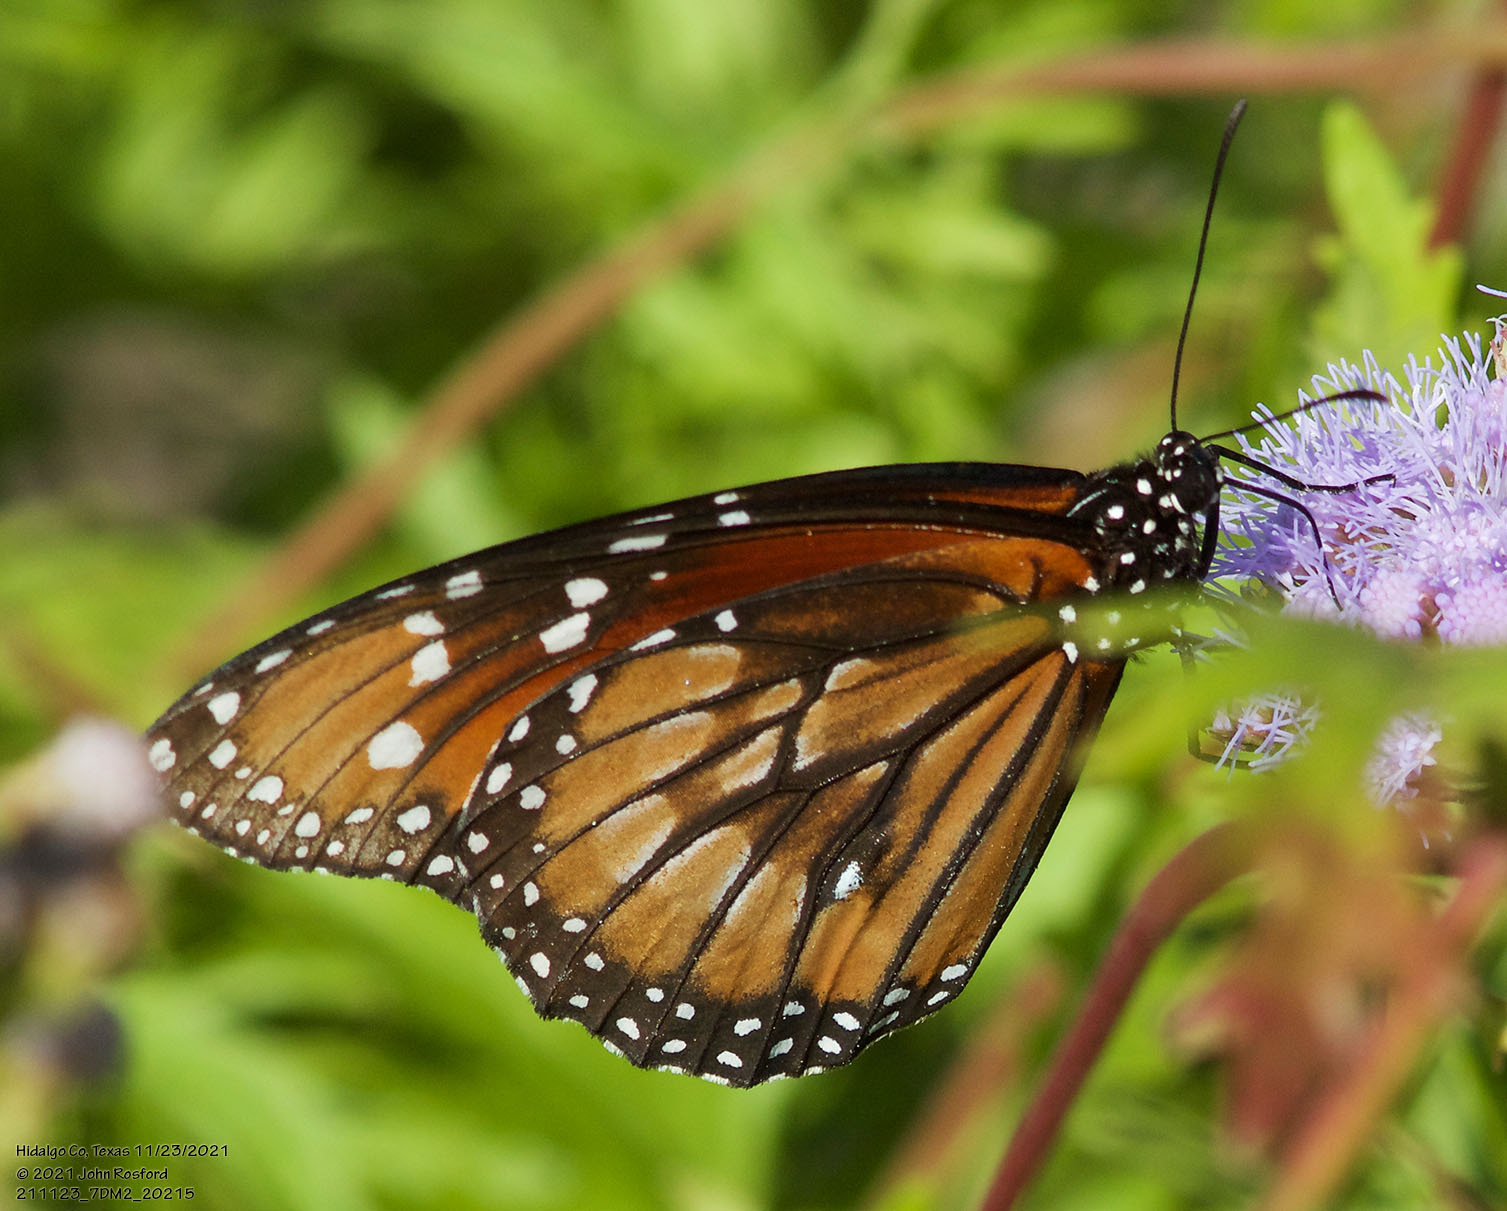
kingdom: Animalia
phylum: Arthropoda
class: Insecta
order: Lepidoptera
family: Nymphalidae
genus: Danaus
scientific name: Danaus eresimus
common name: Soldier
